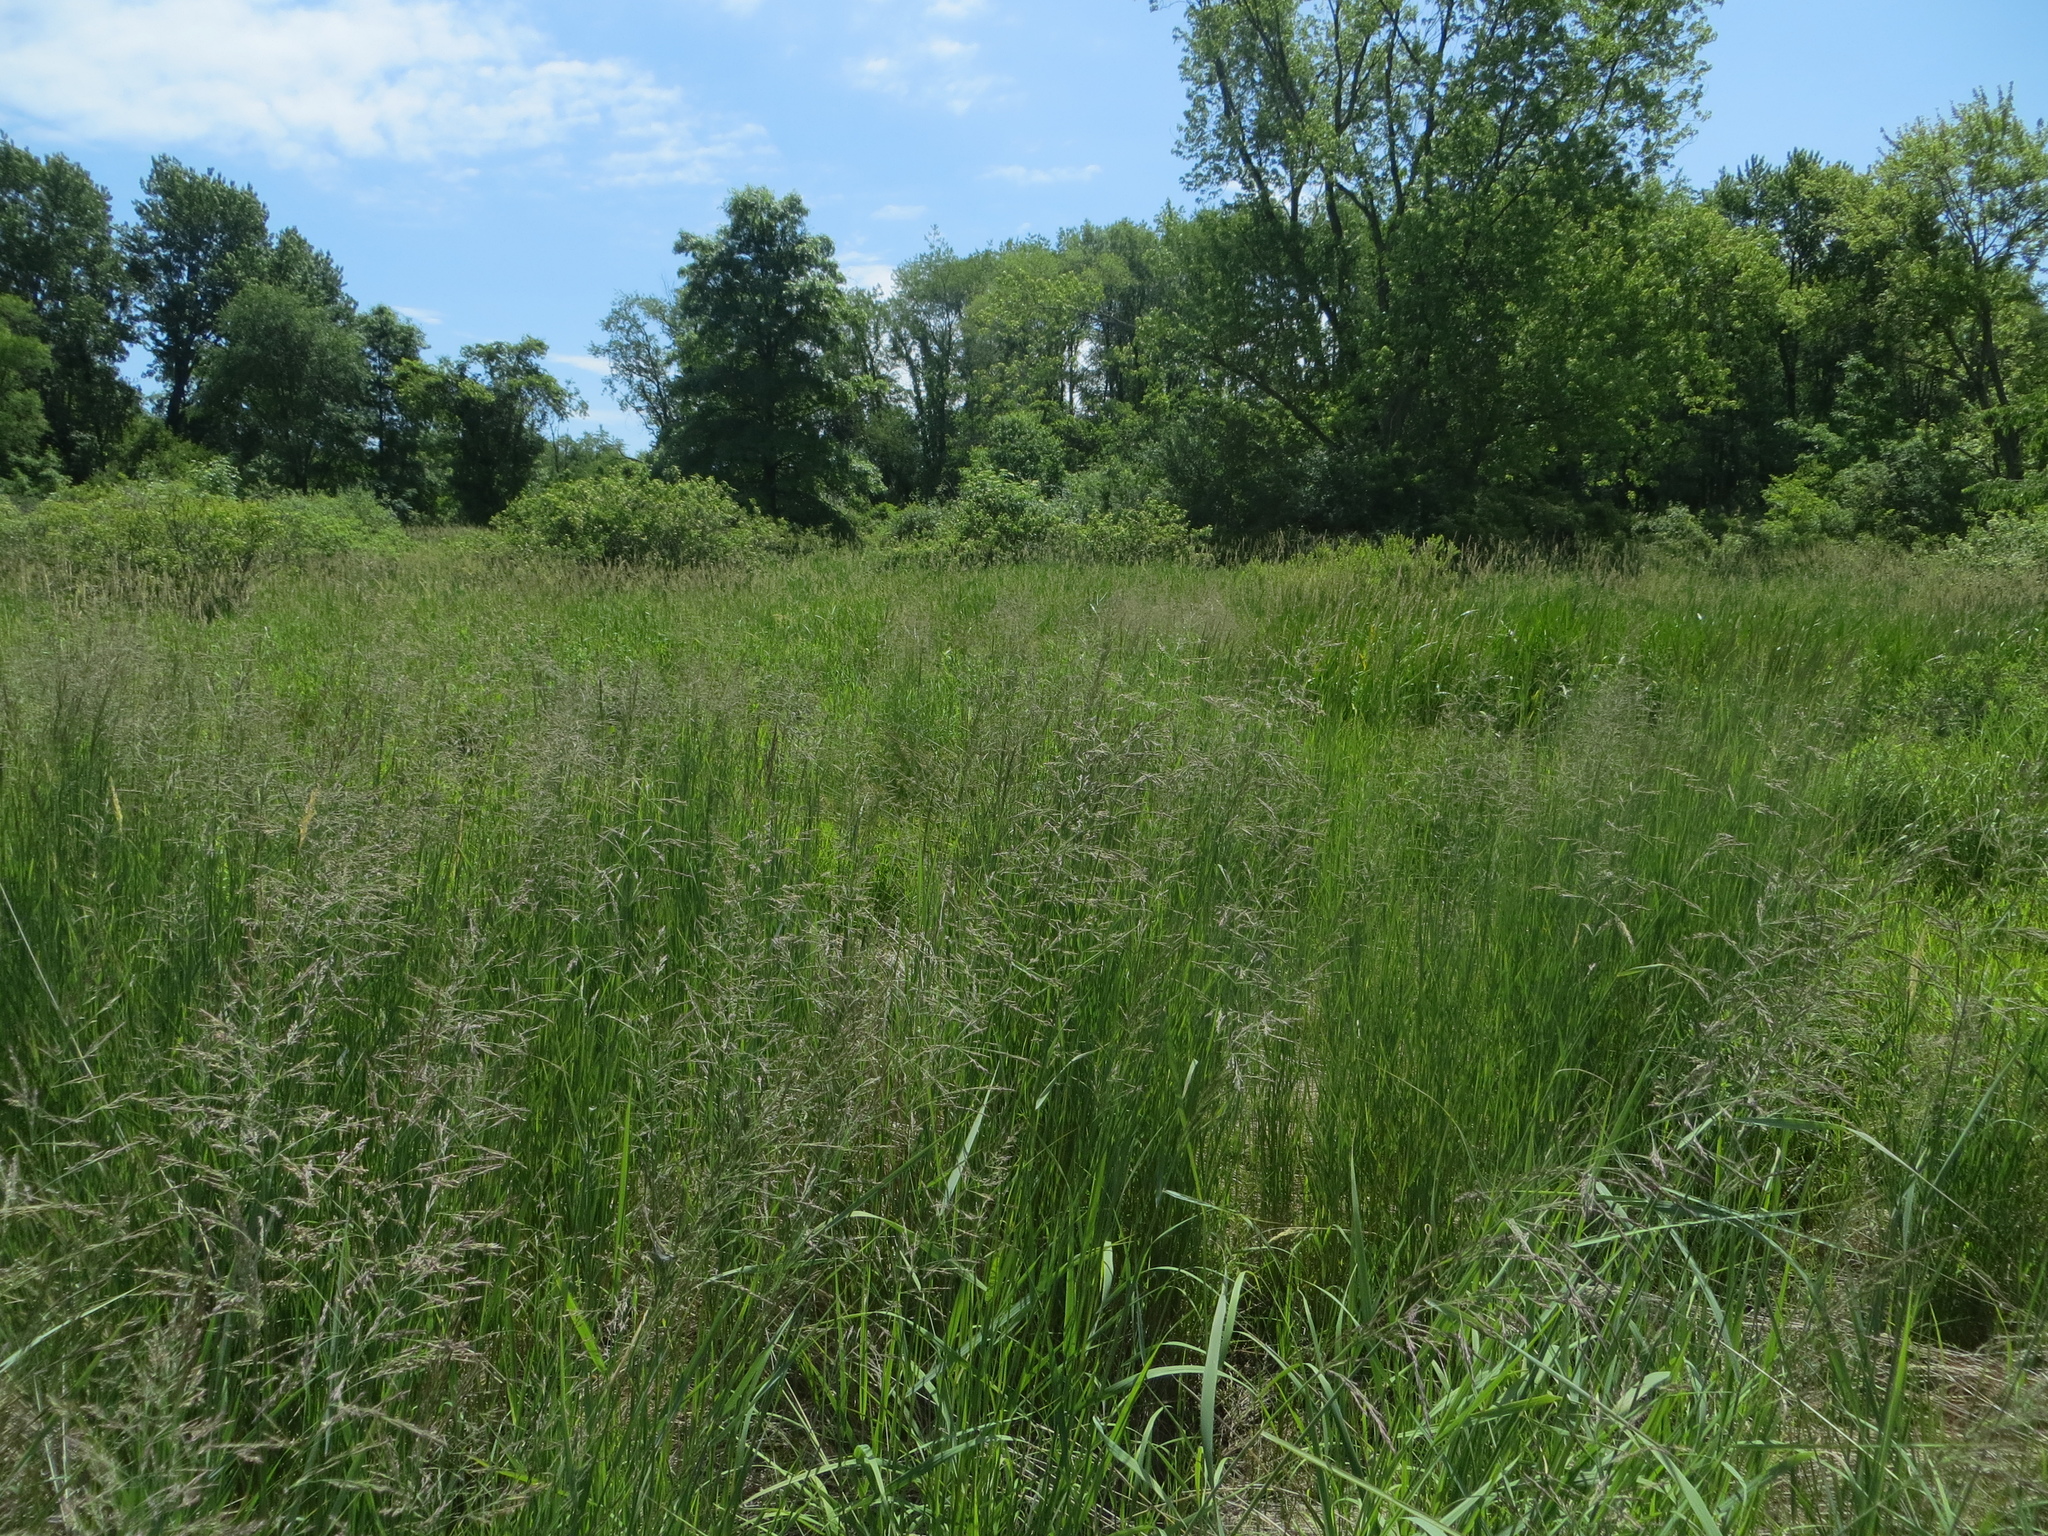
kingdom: Plantae
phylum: Tracheophyta
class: Liliopsida
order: Poales
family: Poaceae
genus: Calamagrostis
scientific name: Calamagrostis canadensis
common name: Canada bluejoint
